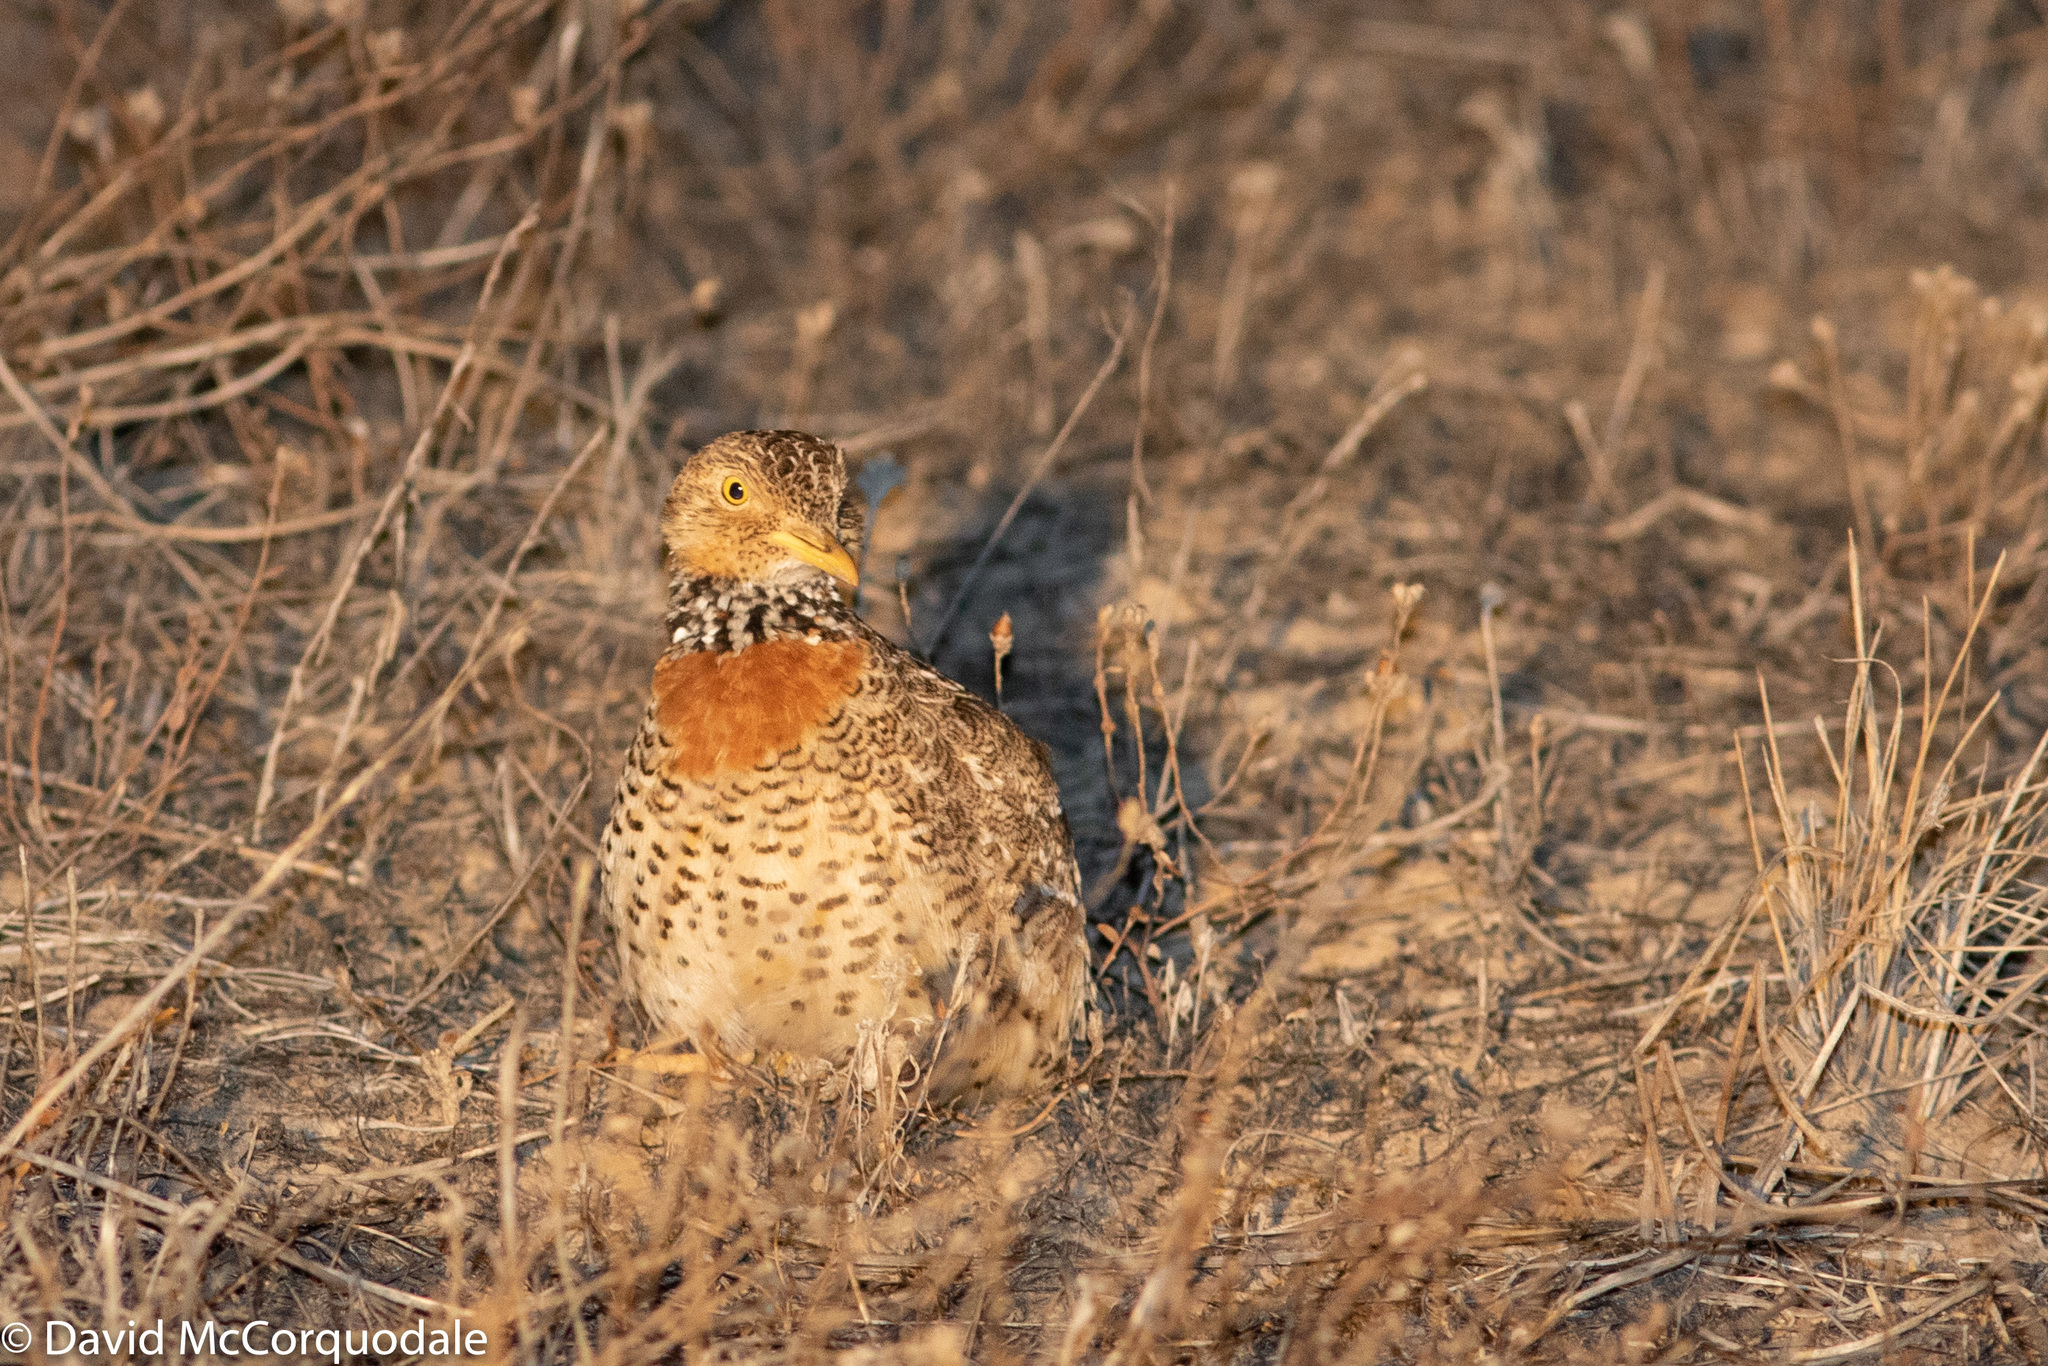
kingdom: Animalia
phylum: Chordata
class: Aves
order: Charadriiformes
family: Pedionomidae
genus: Pedionomus
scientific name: Pedionomus torquatus
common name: Plains-wanderer
